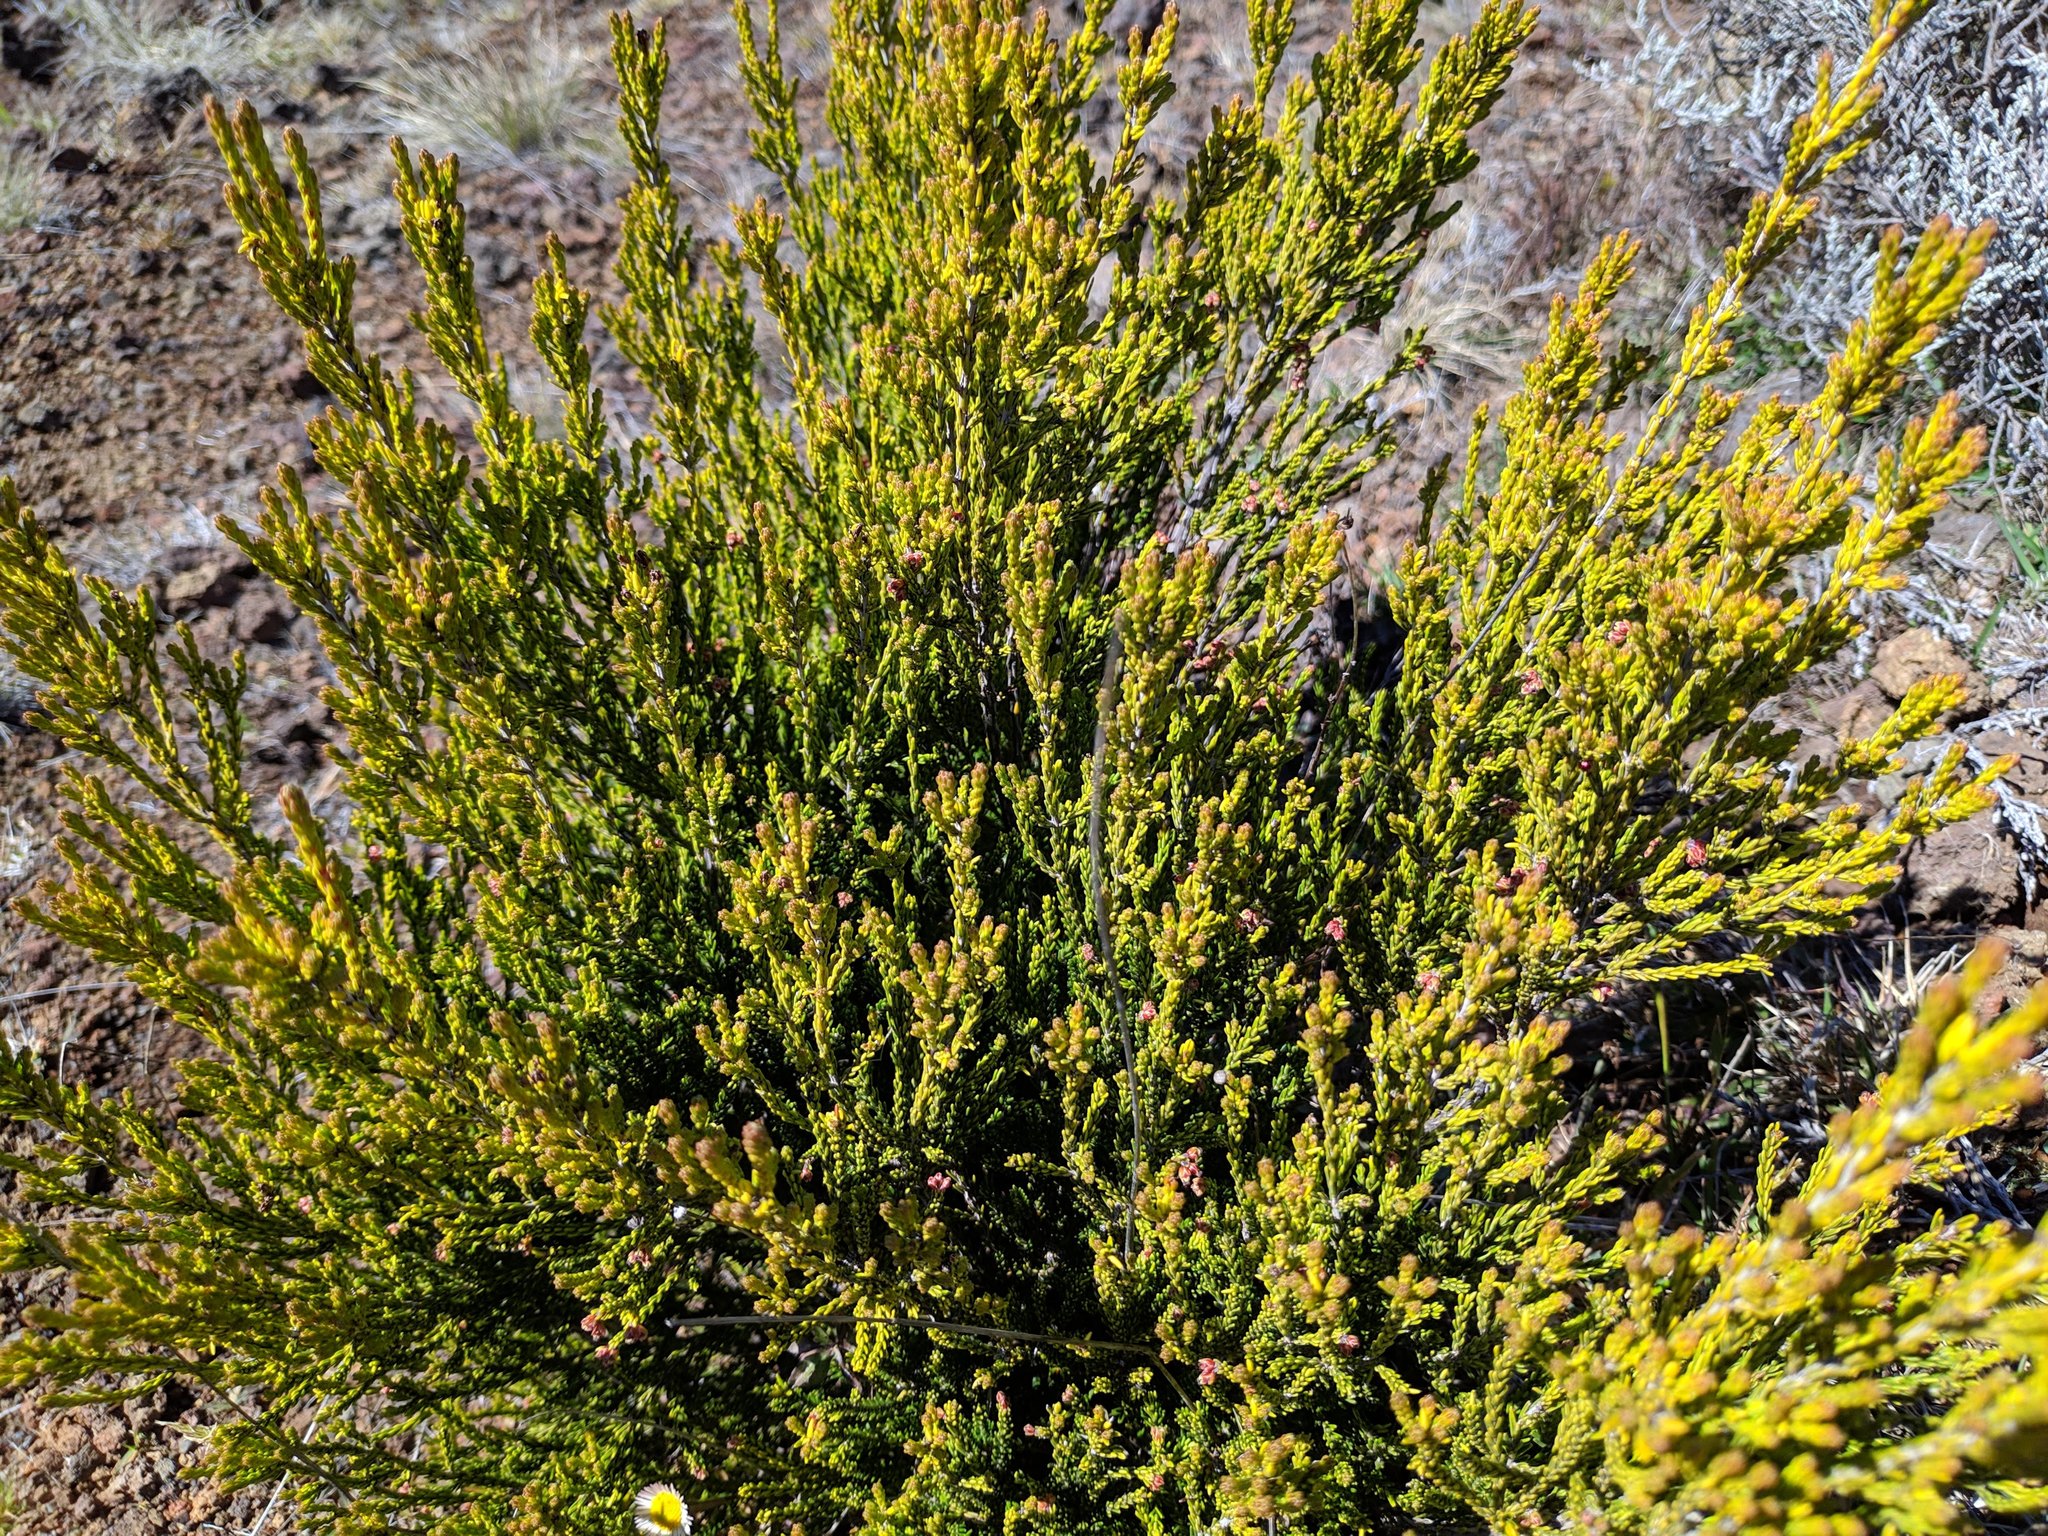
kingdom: Plantae
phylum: Tracheophyta
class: Magnoliopsida
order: Ericales
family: Ericaceae
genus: Erica
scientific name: Erica reunionensis
